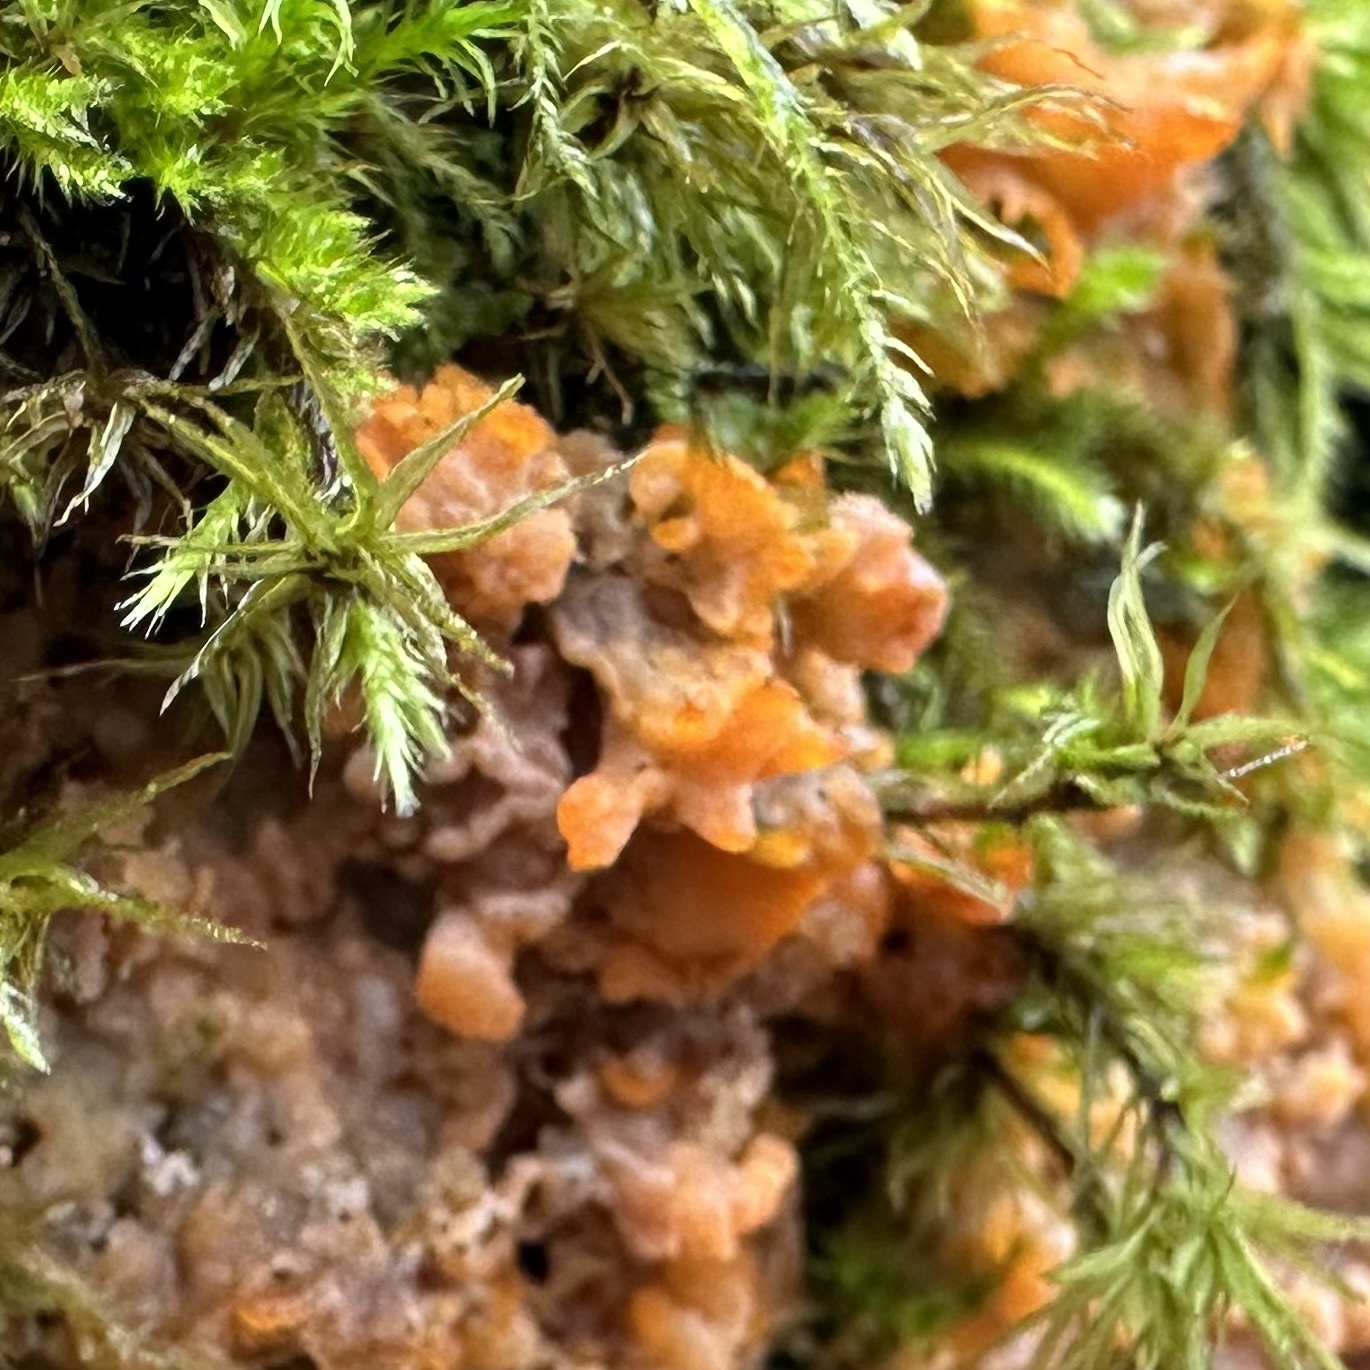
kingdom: Fungi
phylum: Basidiomycota
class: Agaricomycetes
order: Polyporales
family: Meruliaceae
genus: Phlebia
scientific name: Phlebia radiata
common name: Wrinkled crust
